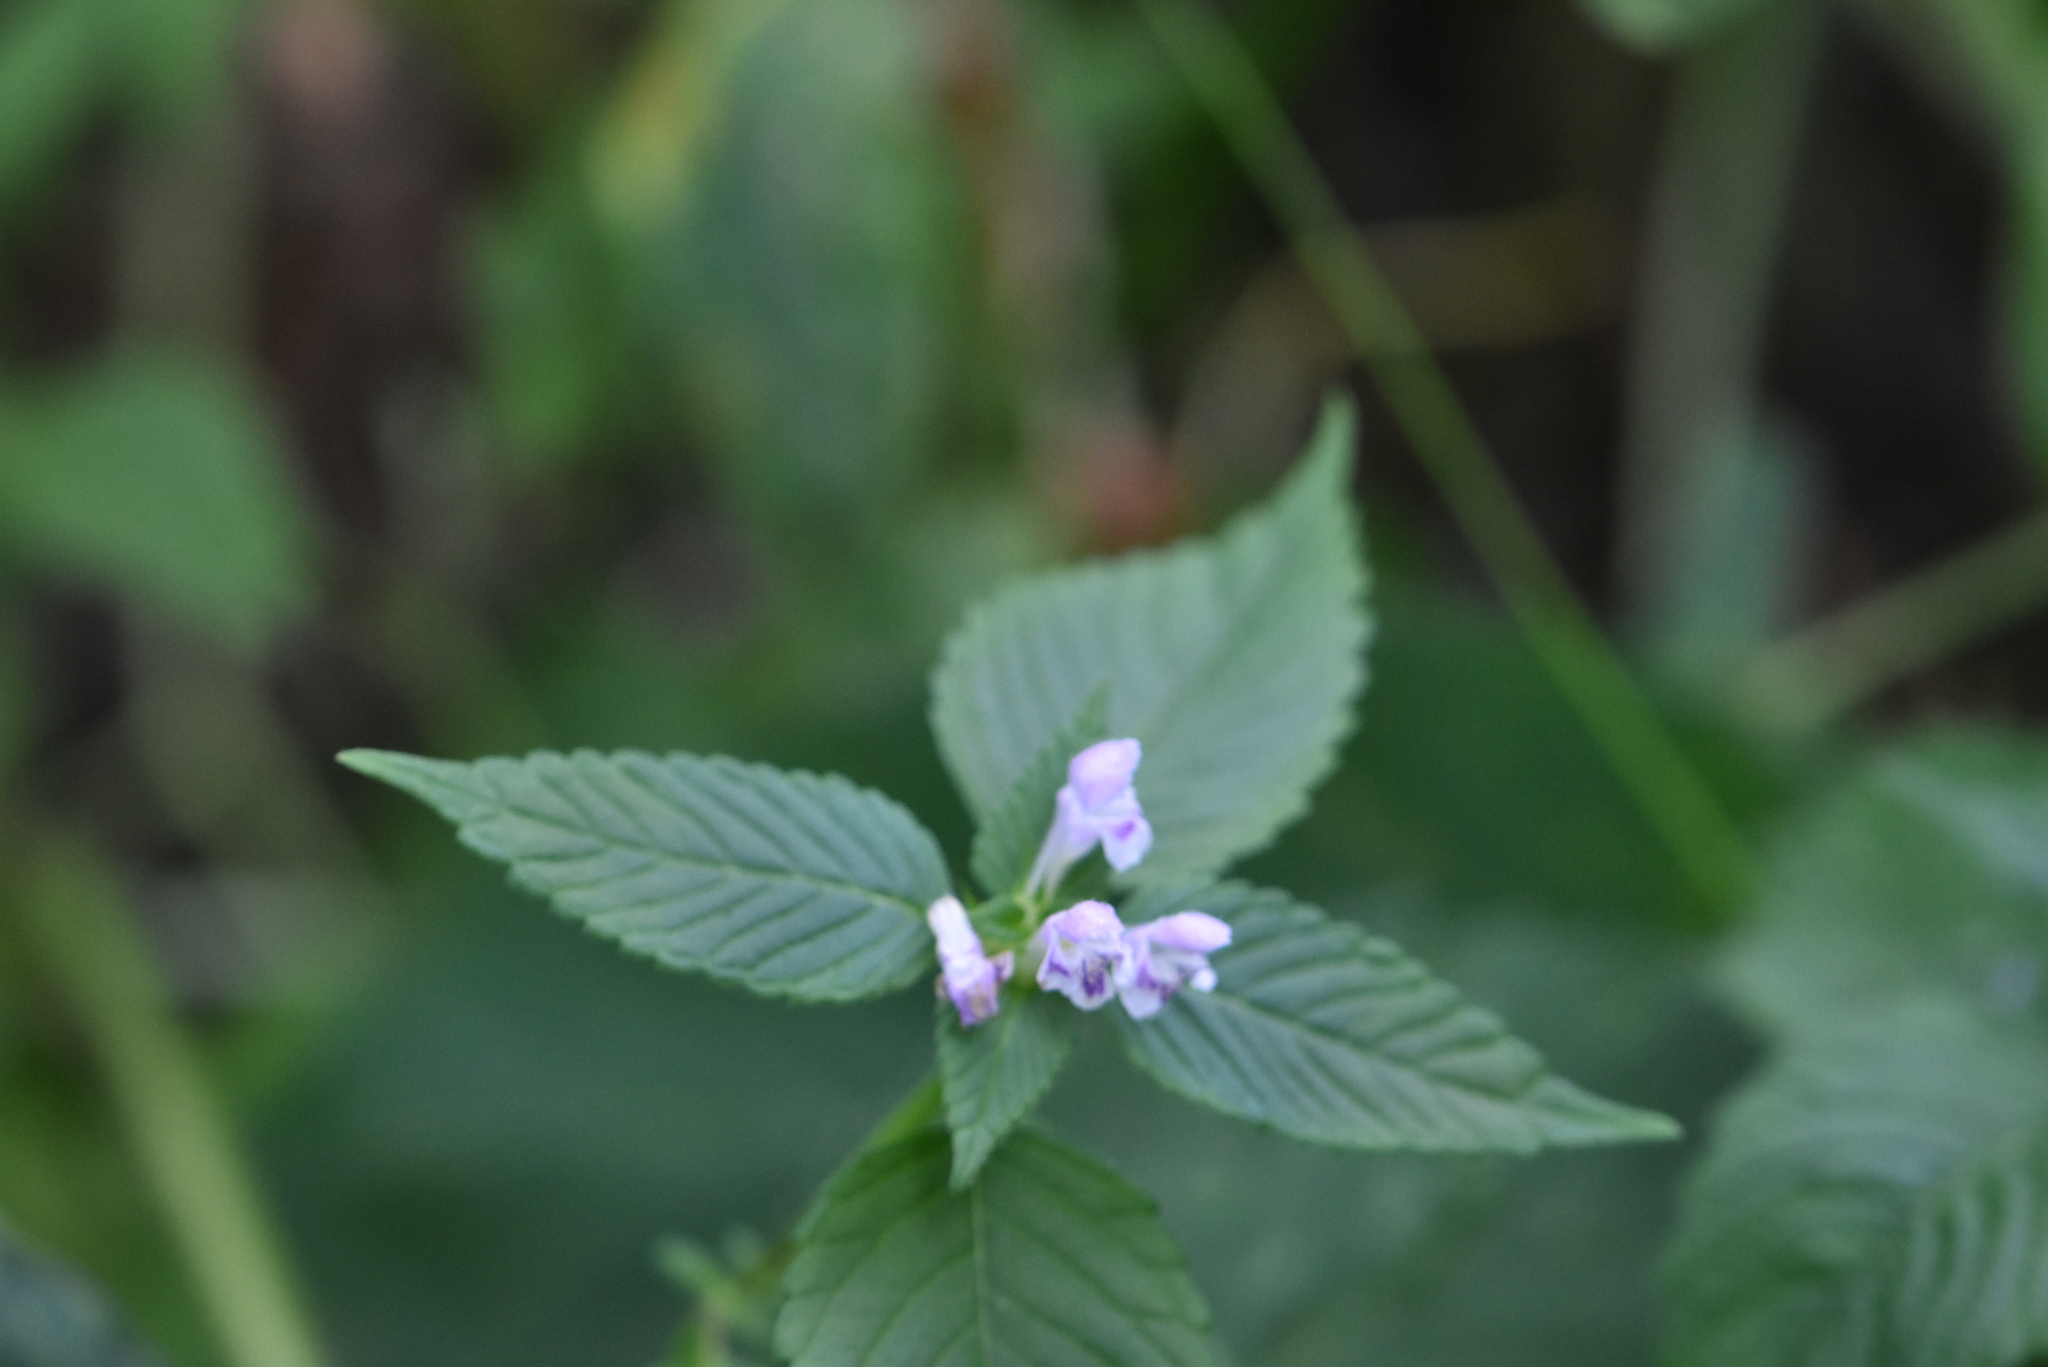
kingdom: Plantae
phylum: Tracheophyta
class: Magnoliopsida
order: Lamiales
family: Lamiaceae
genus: Galeopsis
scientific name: Galeopsis tetrahit
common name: Common hemp-nettle
